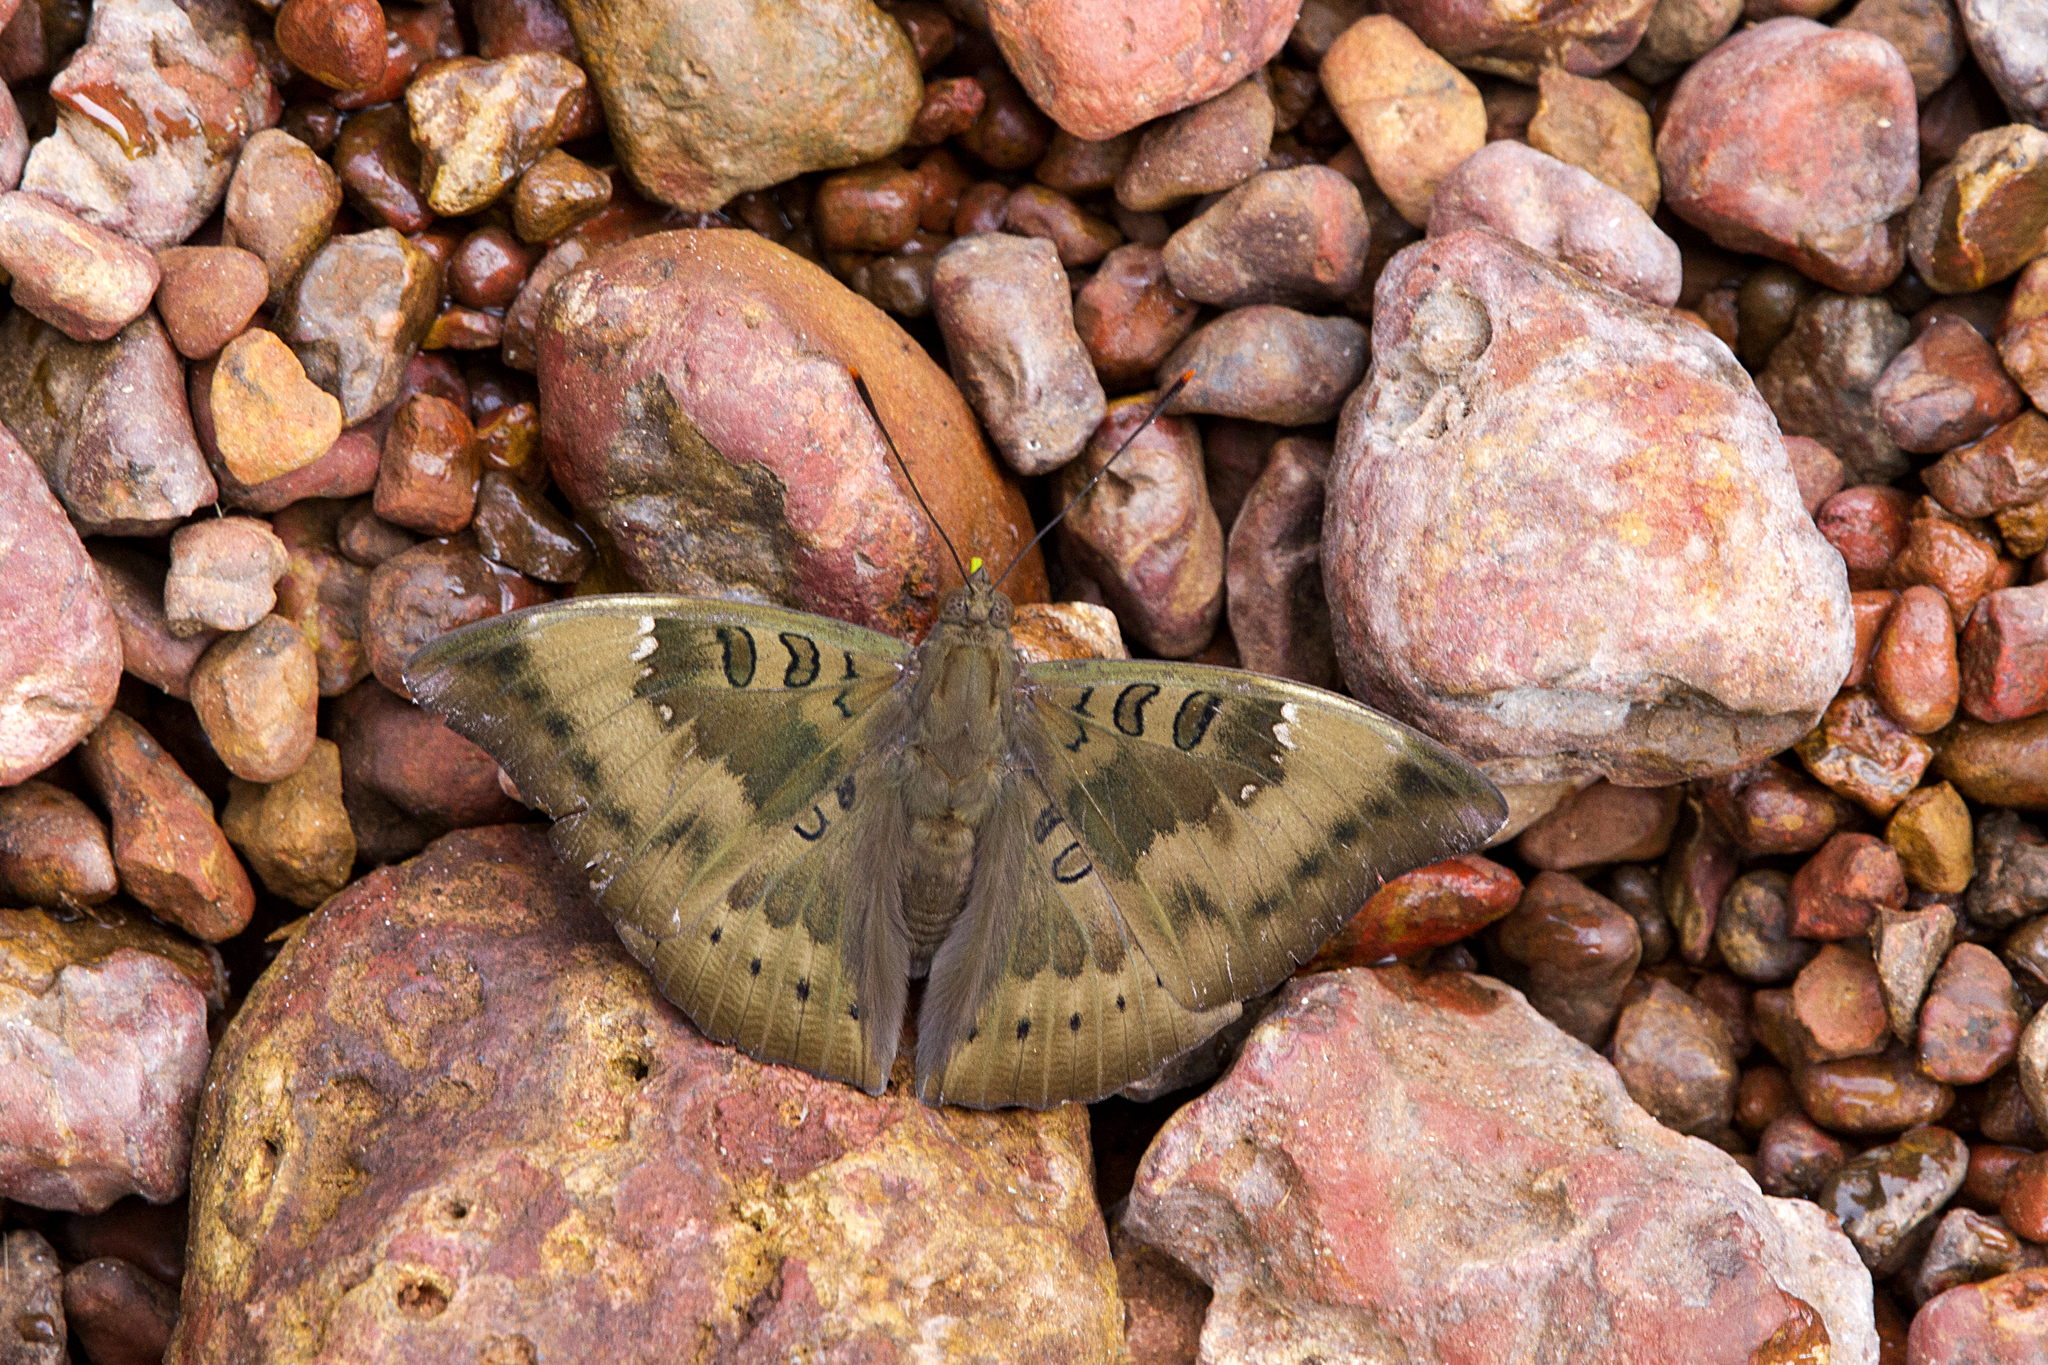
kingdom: Animalia
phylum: Arthropoda
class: Insecta
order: Lepidoptera
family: Nymphalidae
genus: Euthalia
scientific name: Euthalia aconthea
